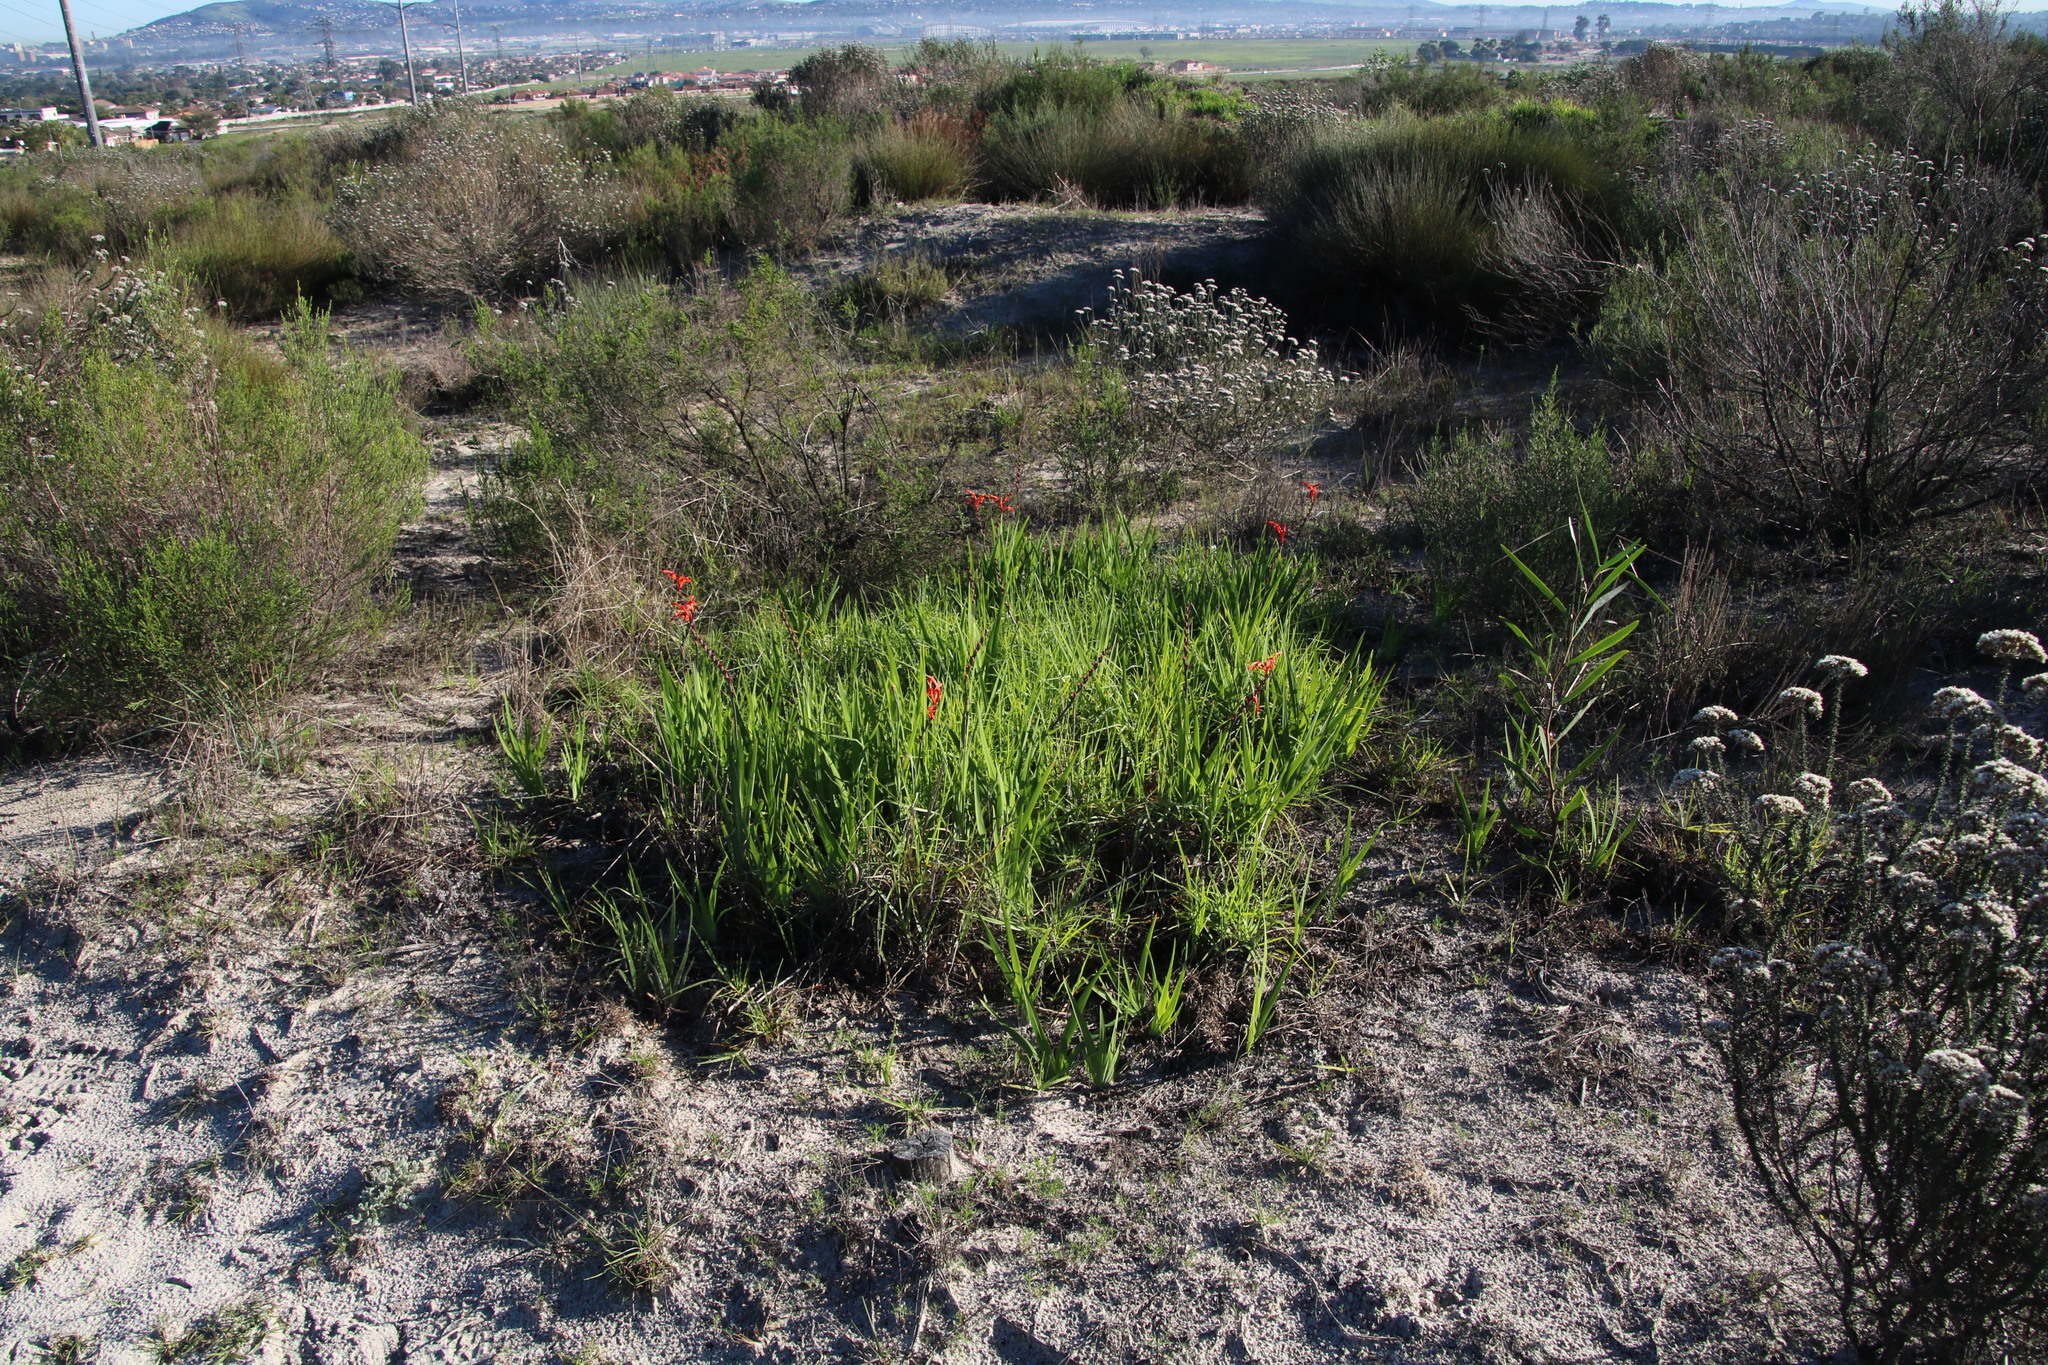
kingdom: Plantae
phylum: Tracheophyta
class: Liliopsida
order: Asparagales
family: Iridaceae
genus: Chasmanthe
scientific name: Chasmanthe aethiopica
